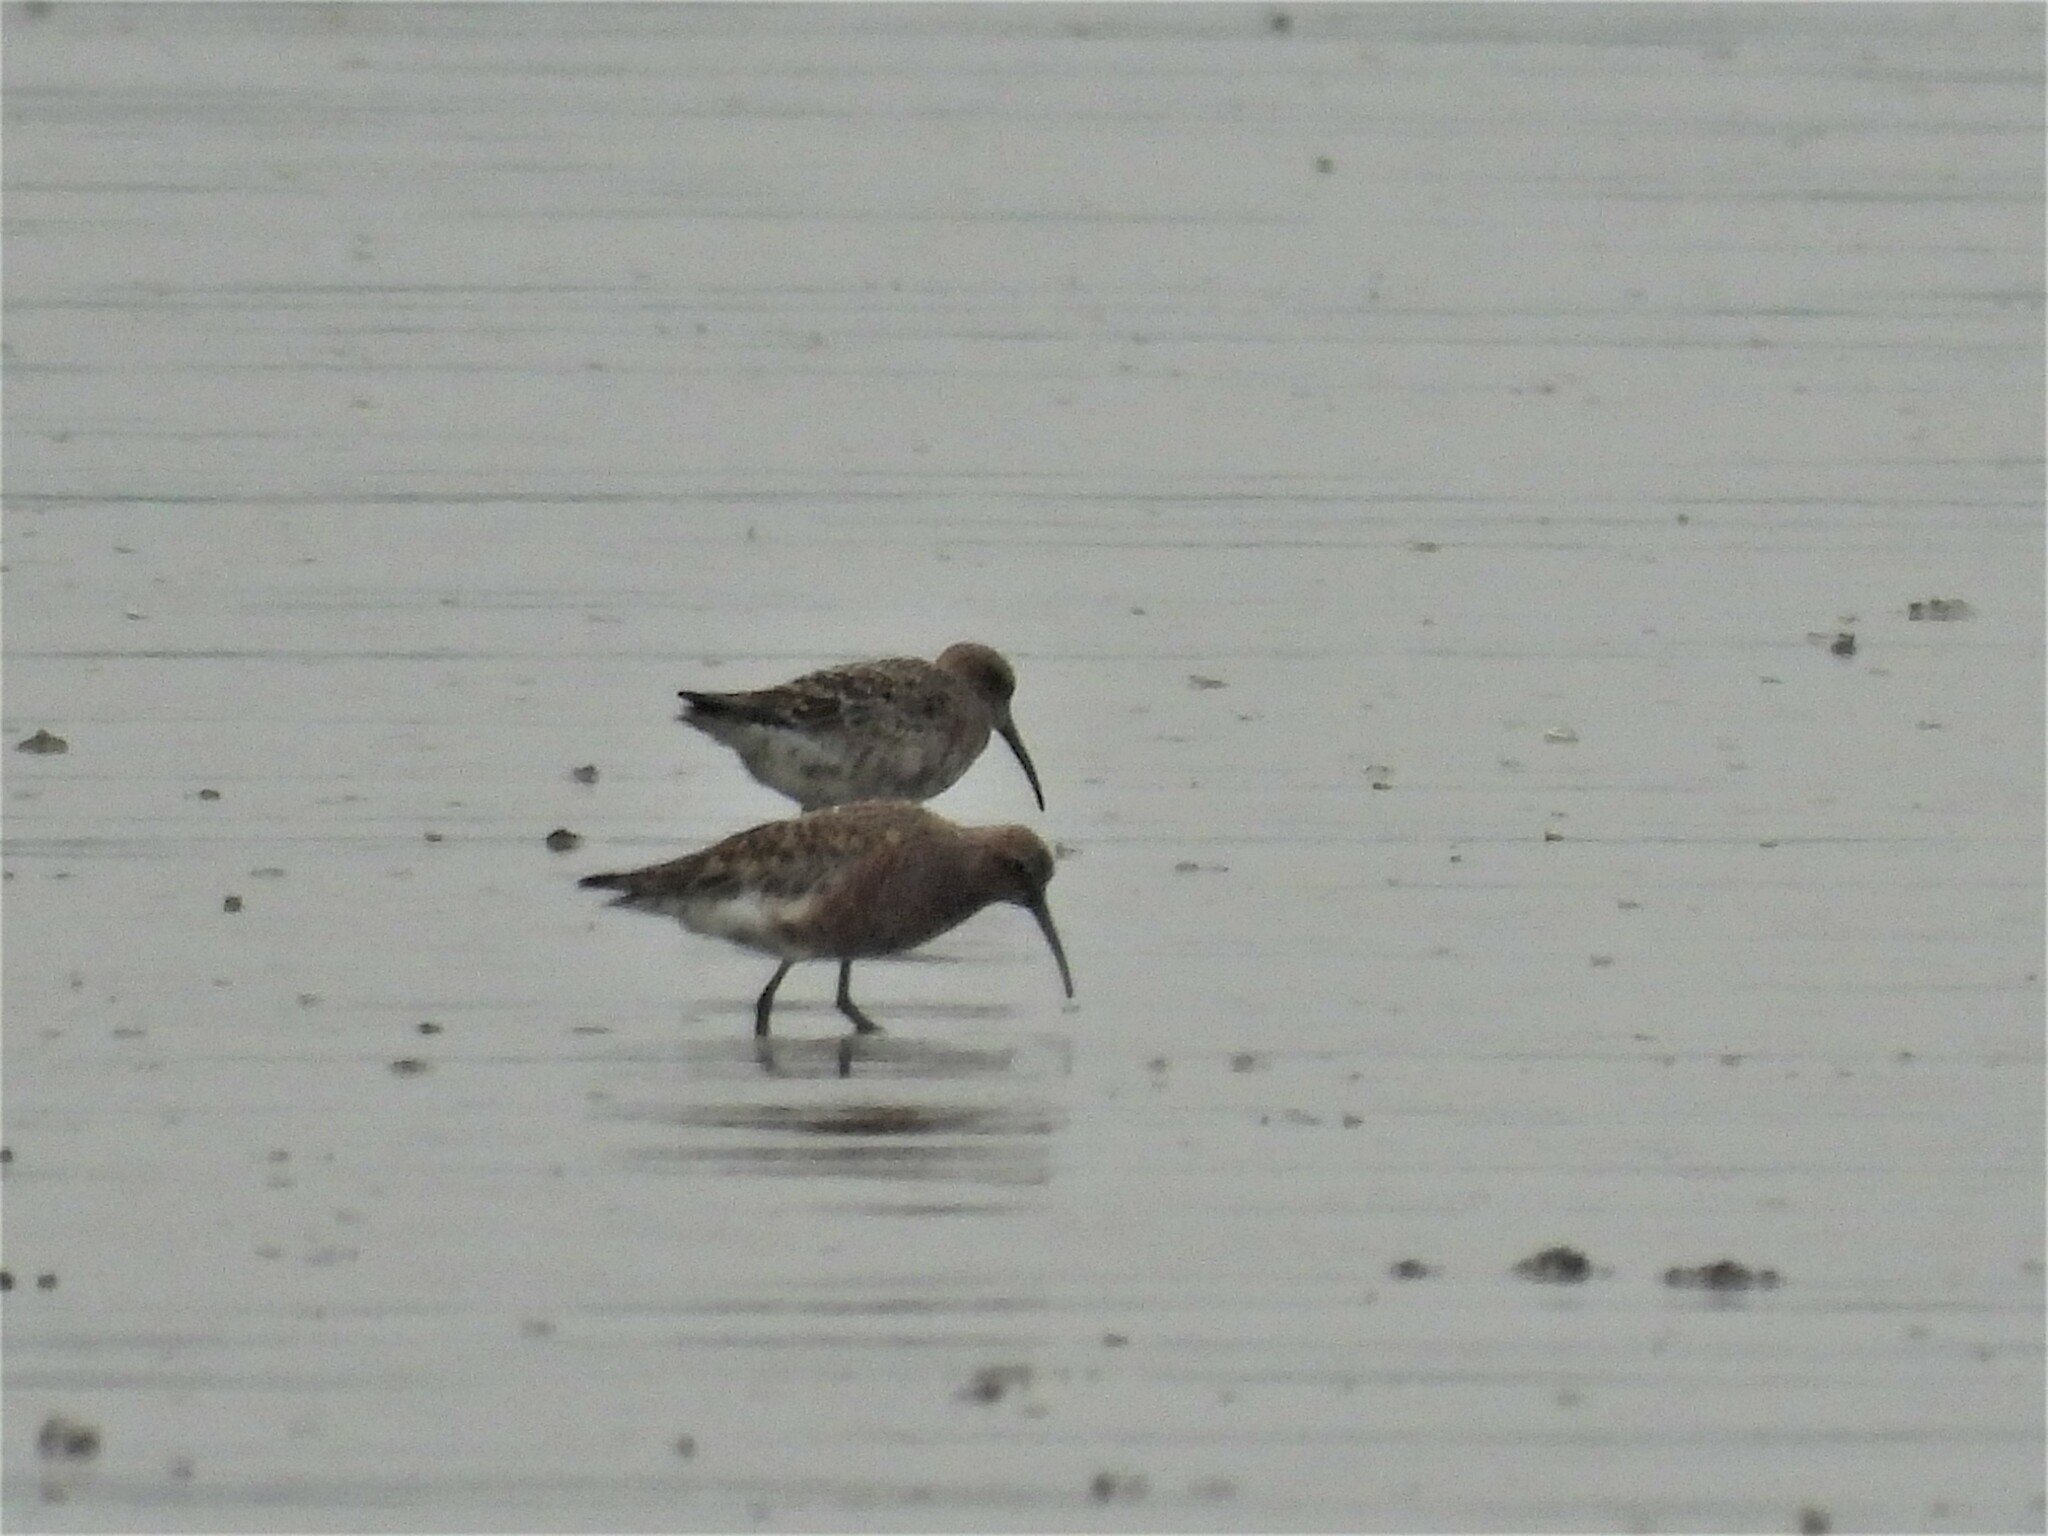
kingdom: Animalia
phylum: Chordata
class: Aves
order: Charadriiformes
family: Scolopacidae
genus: Calidris
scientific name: Calidris ferruginea
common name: Curlew sandpiper
